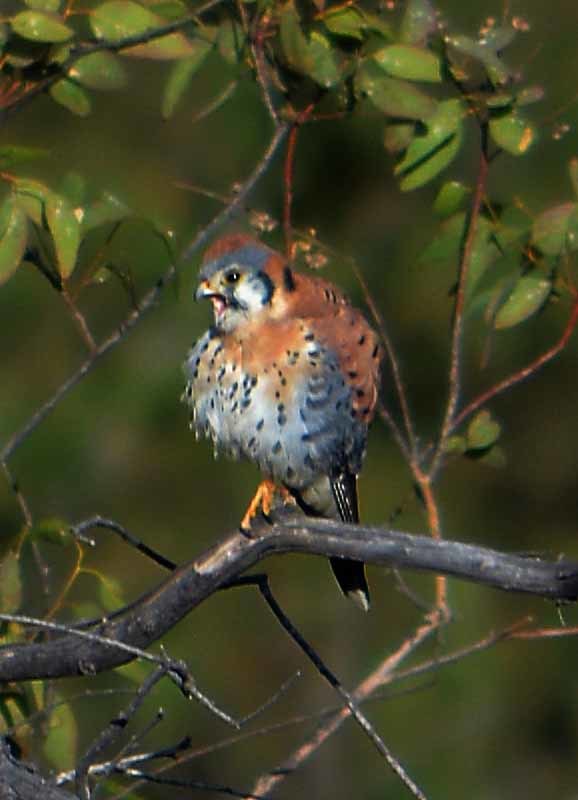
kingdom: Animalia
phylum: Chordata
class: Aves
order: Falconiformes
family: Falconidae
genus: Falco
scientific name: Falco sparverius
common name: American kestrel
